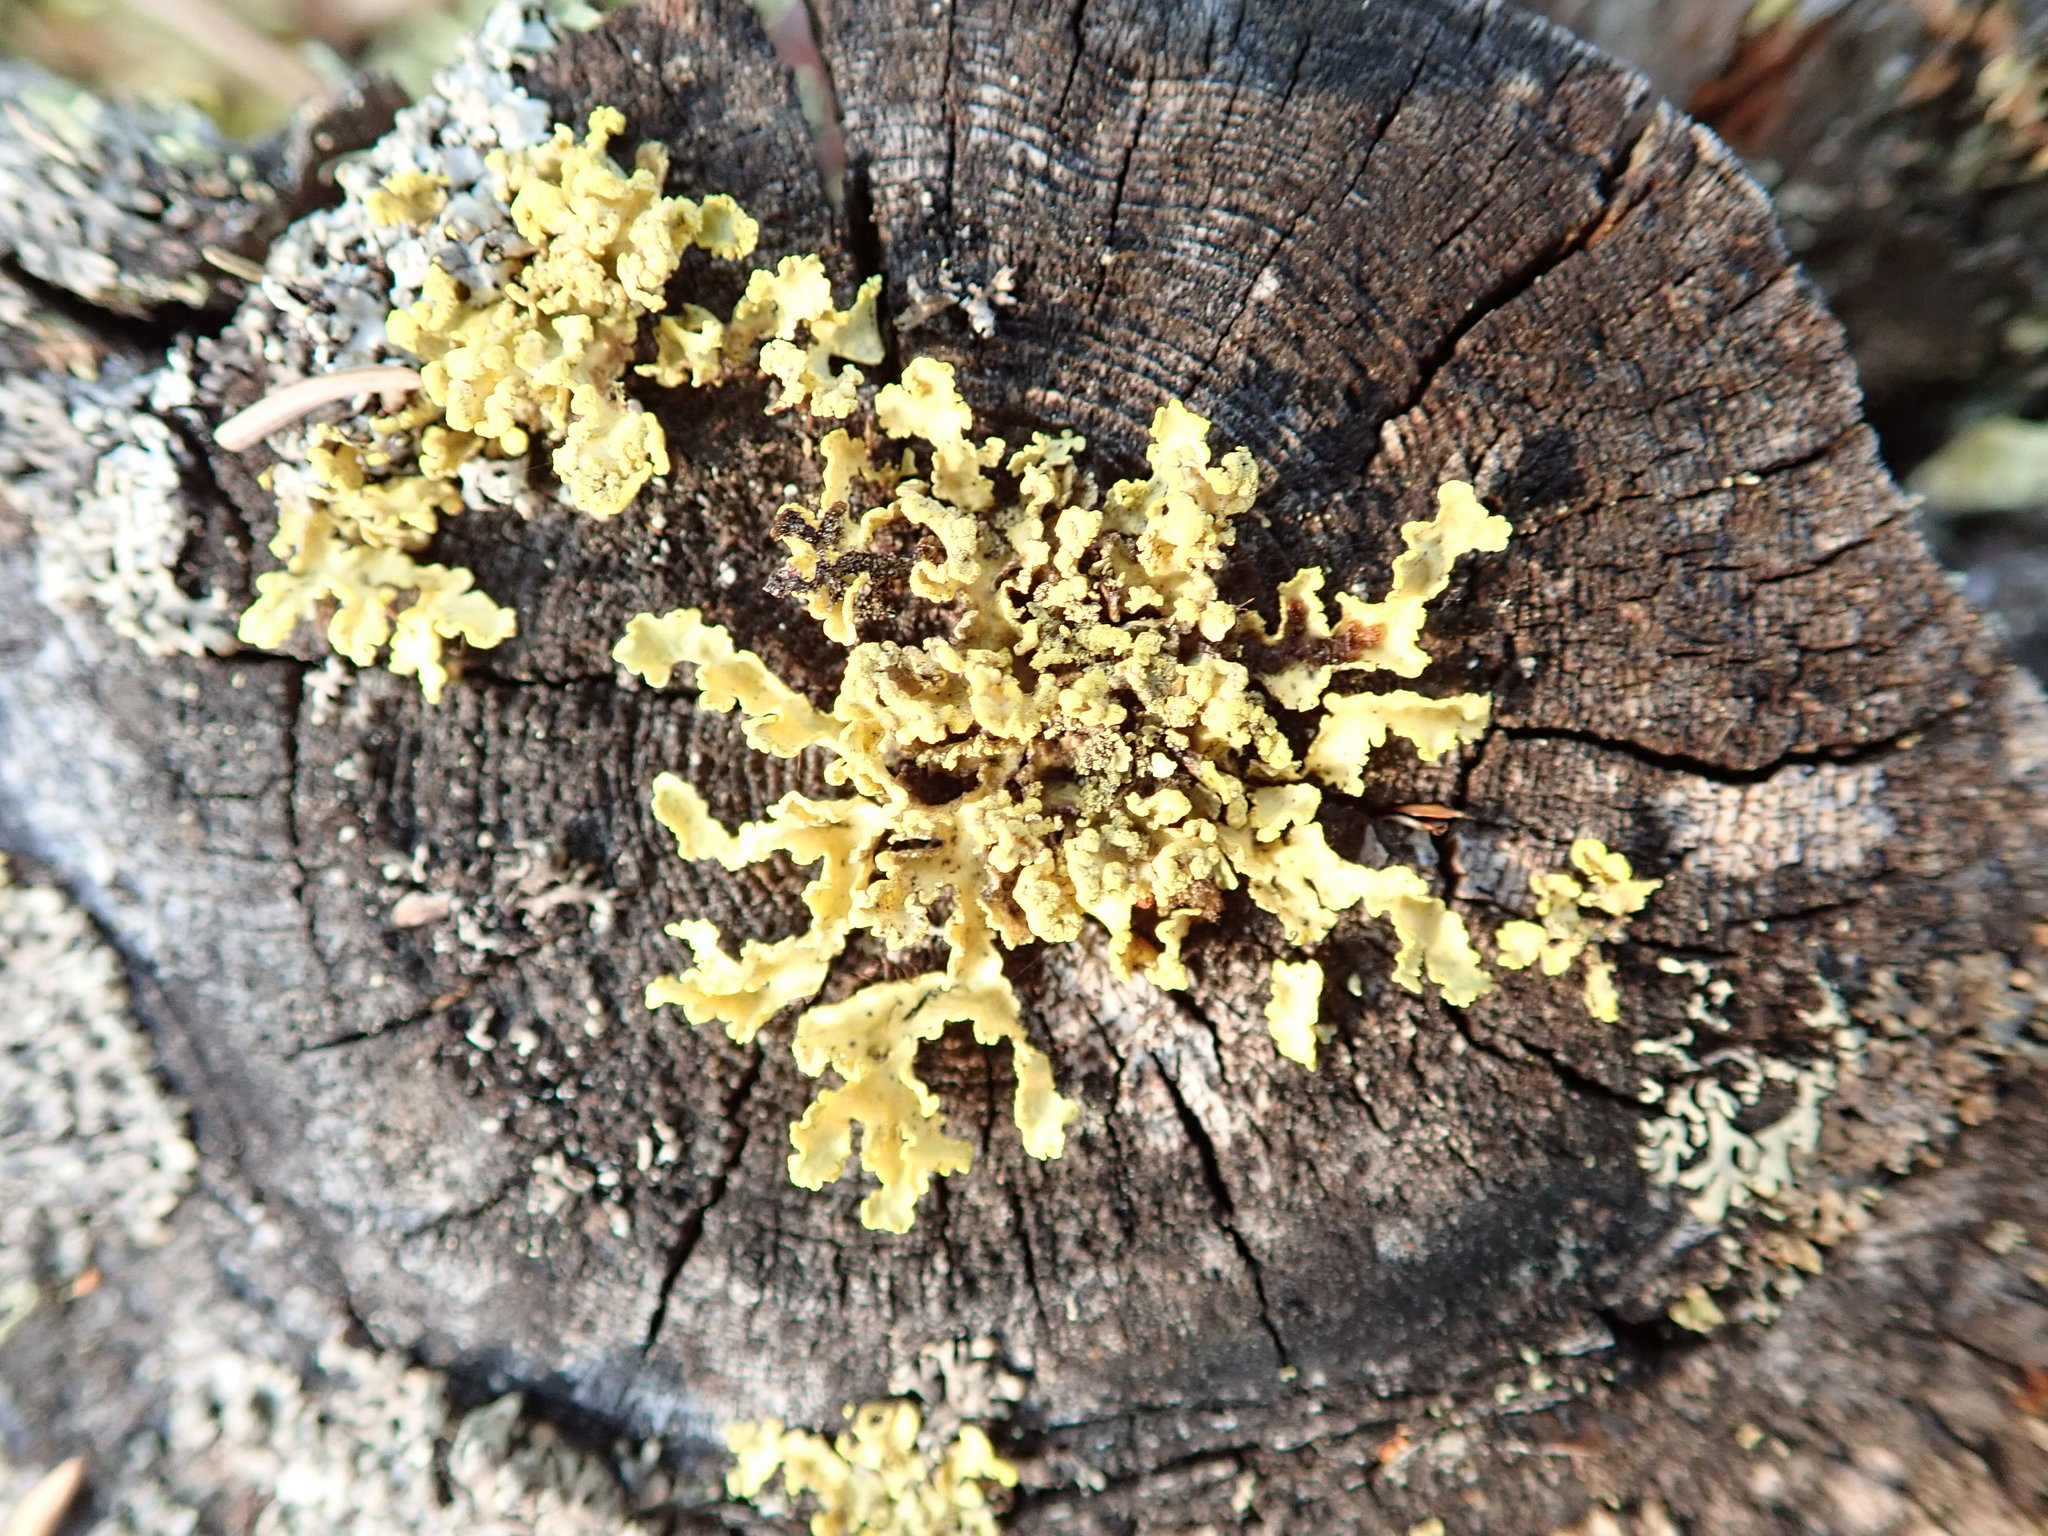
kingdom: Fungi
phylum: Ascomycota
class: Lecanoromycetes
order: Lecanorales
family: Parmeliaceae
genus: Vulpicida
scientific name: Vulpicida pinastri
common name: Powdered sunshine lichen
